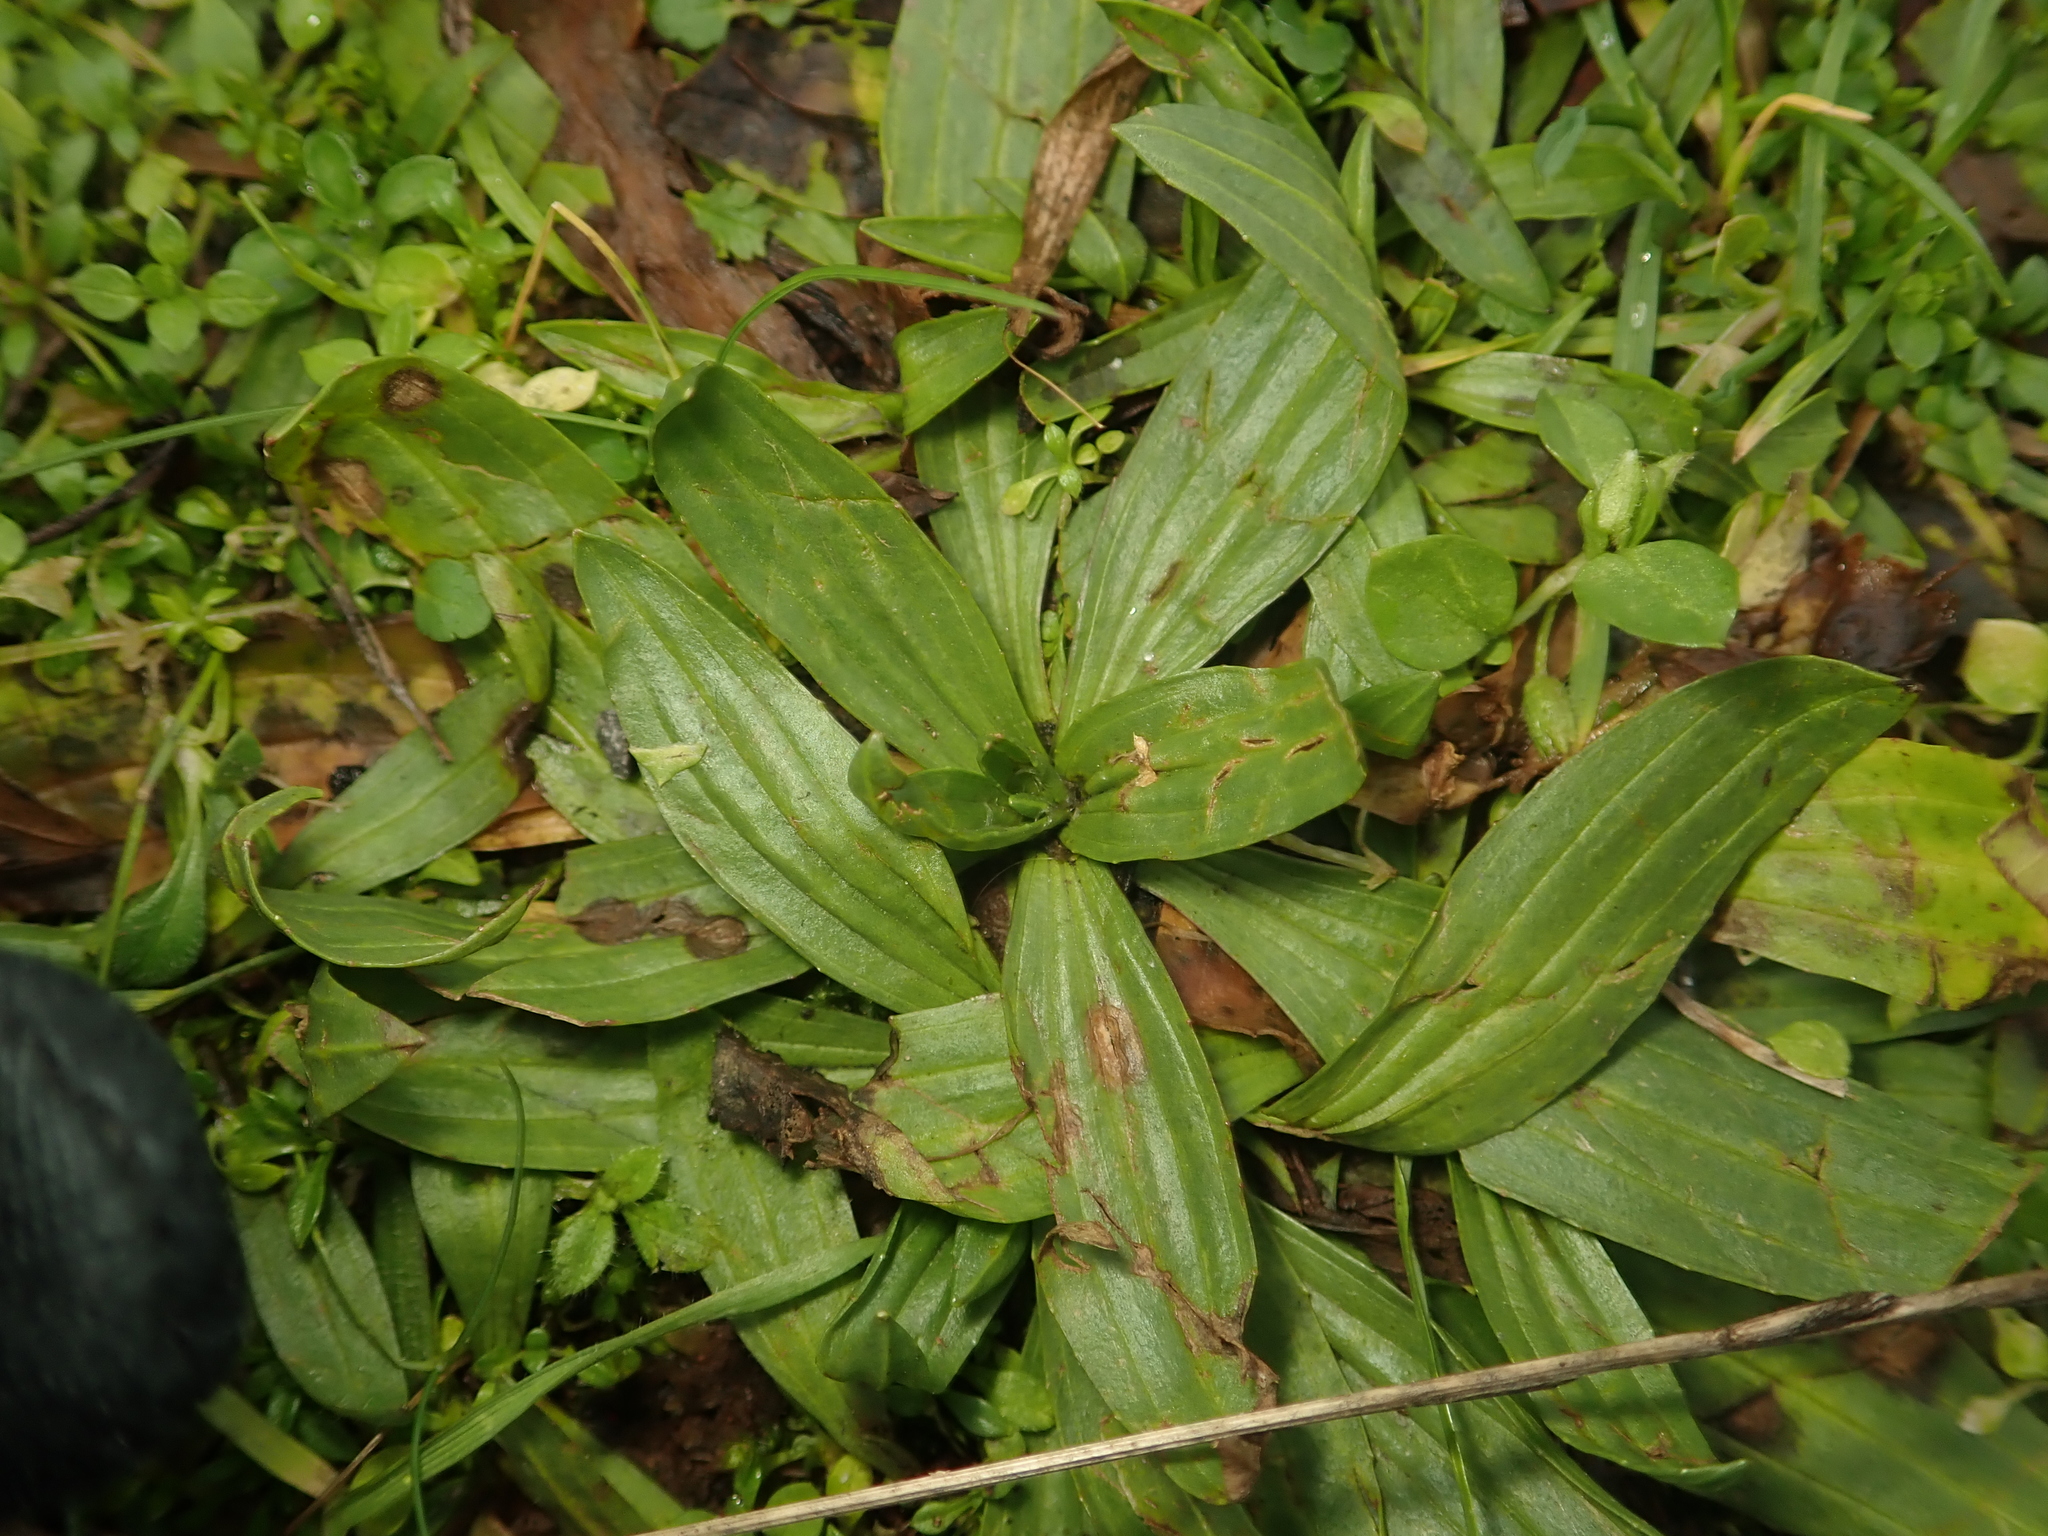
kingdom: Plantae
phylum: Tracheophyta
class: Magnoliopsida
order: Lamiales
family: Plantaginaceae
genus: Plantago
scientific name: Plantago lanceolata
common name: Ribwort plantain
